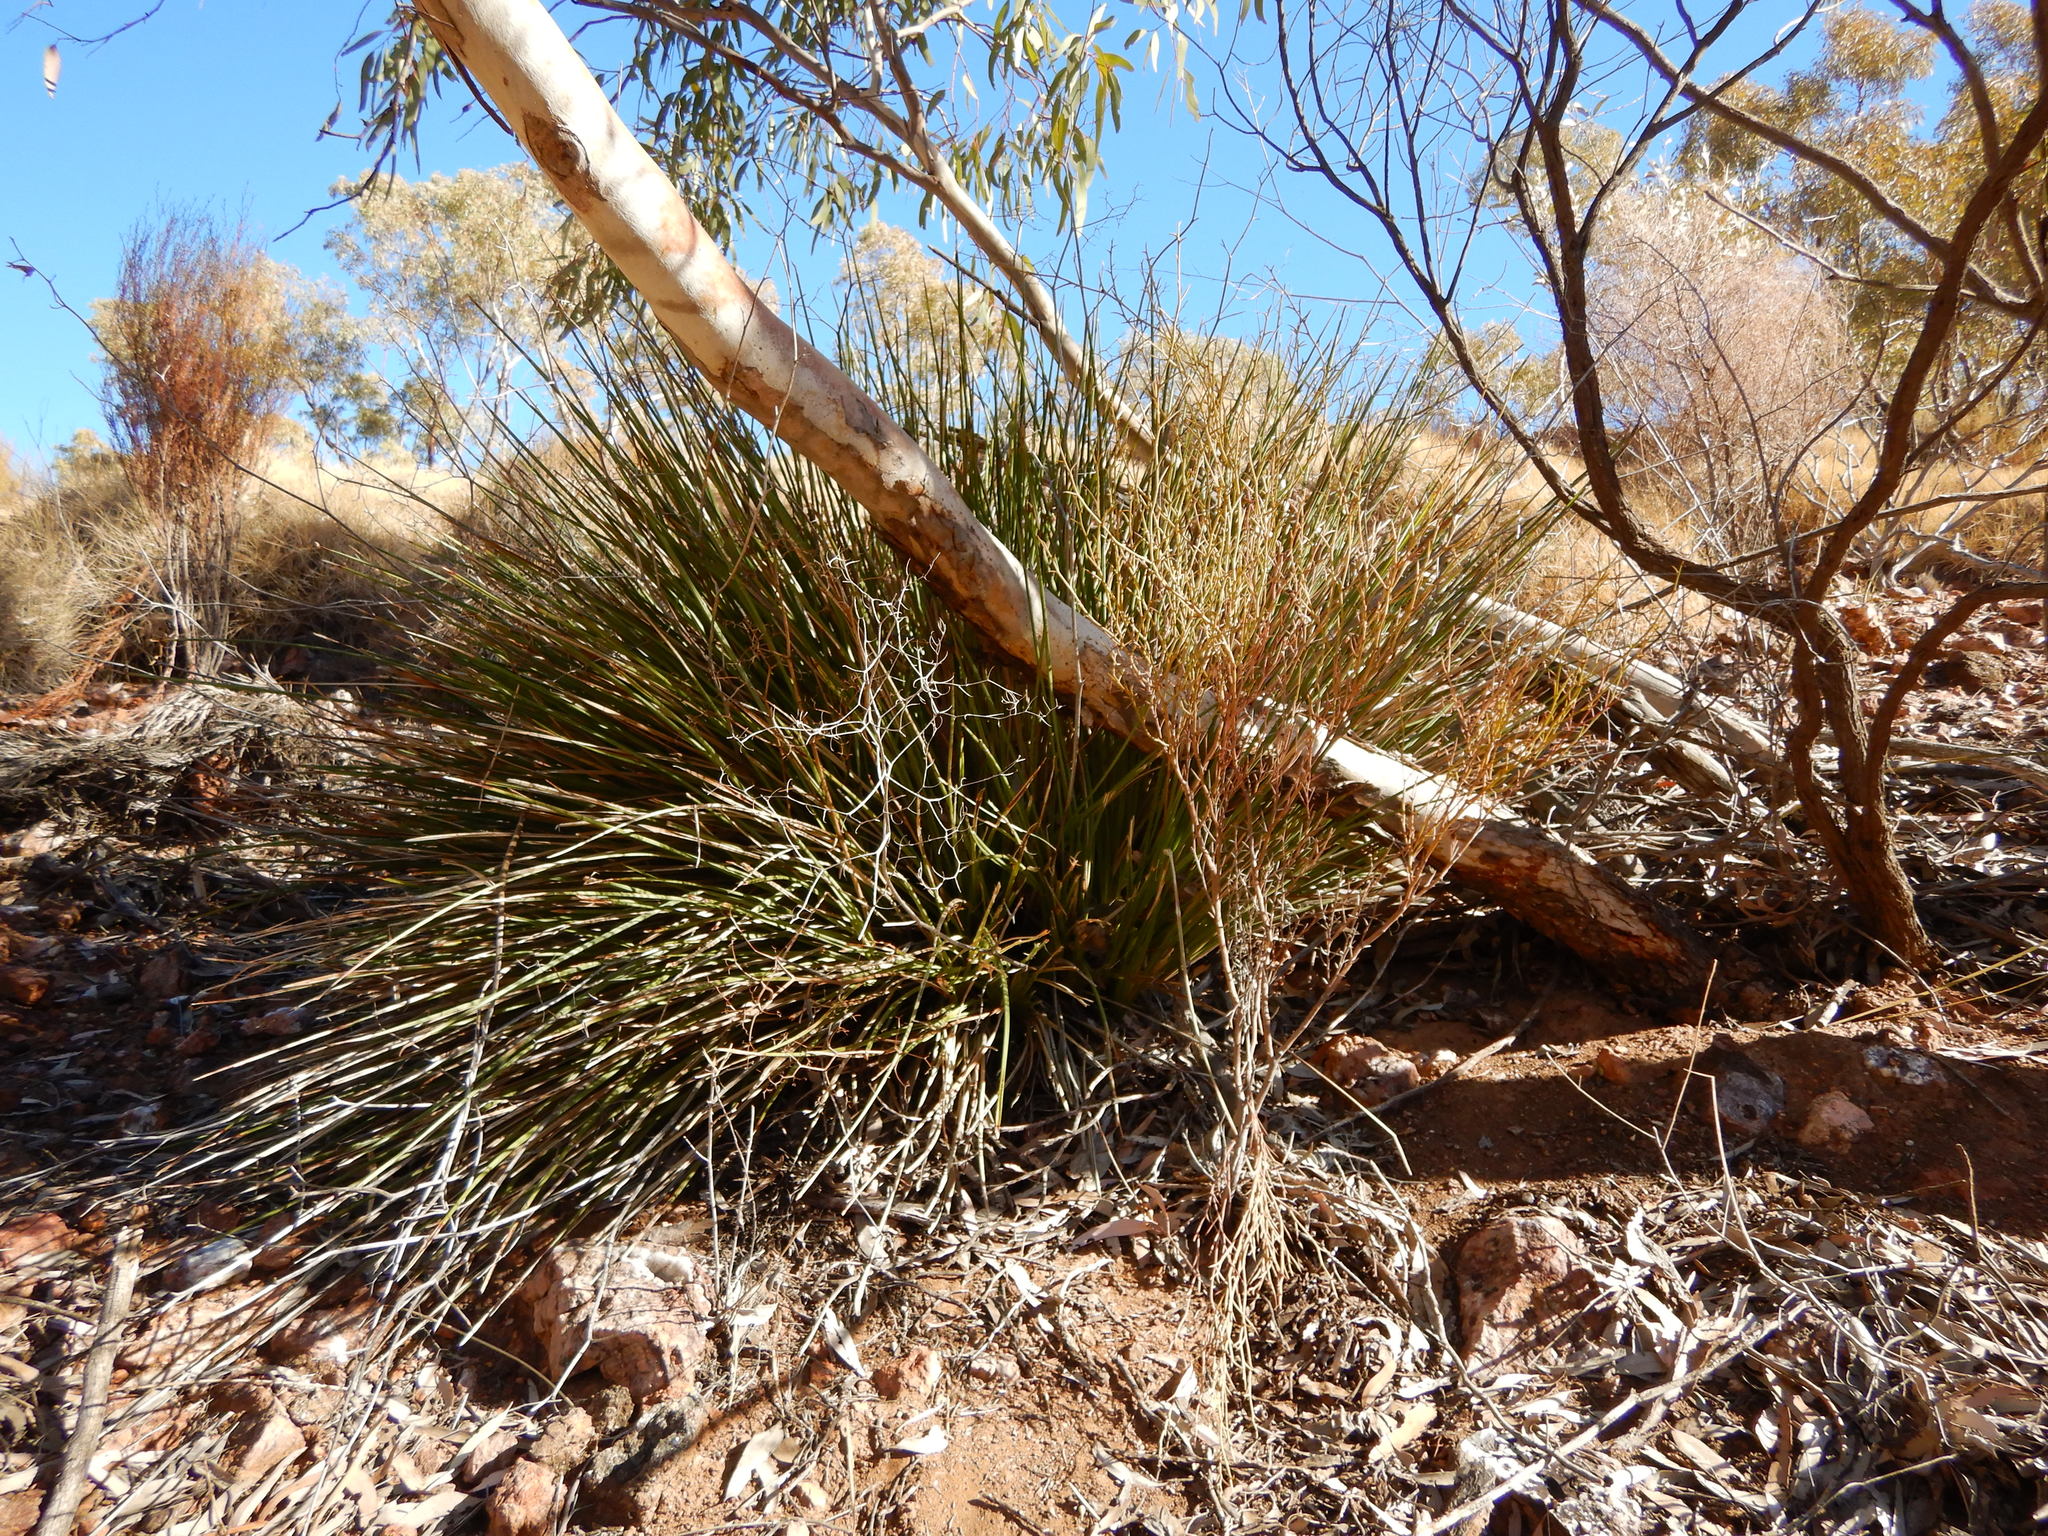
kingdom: Plantae
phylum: Tracheophyta
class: Liliopsida
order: Asparagales
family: Asphodelaceae
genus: Dianella
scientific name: Dianella revoluta
